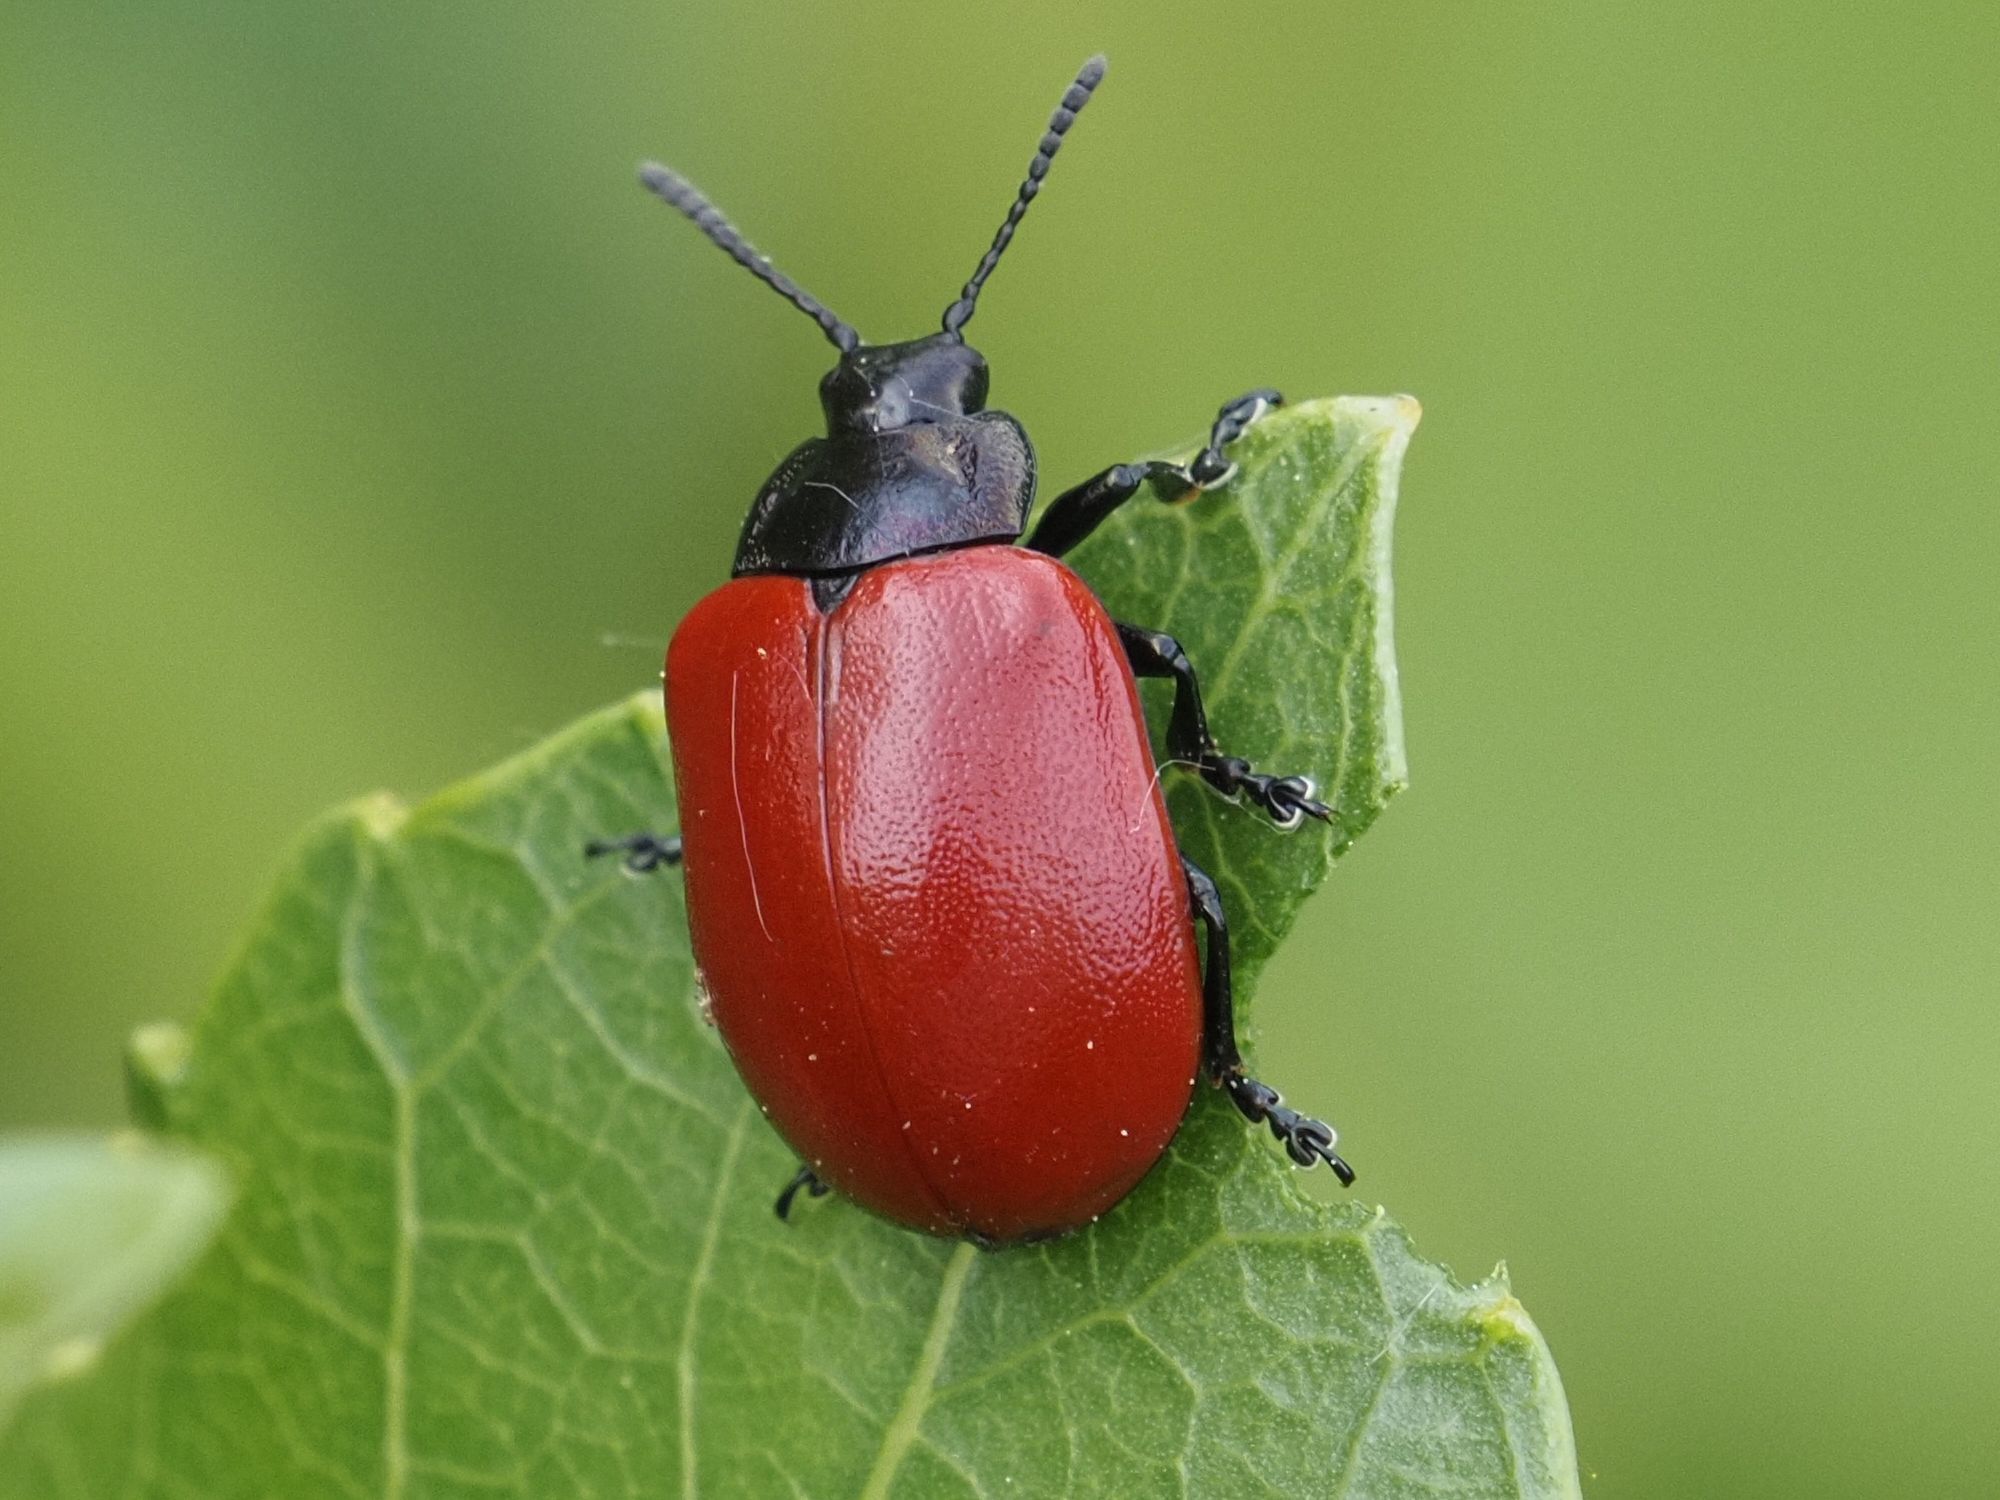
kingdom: Animalia
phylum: Arthropoda
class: Insecta
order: Coleoptera
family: Chrysomelidae
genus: Chrysomela
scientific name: Chrysomela populi
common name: Red poplar leaf beetle
